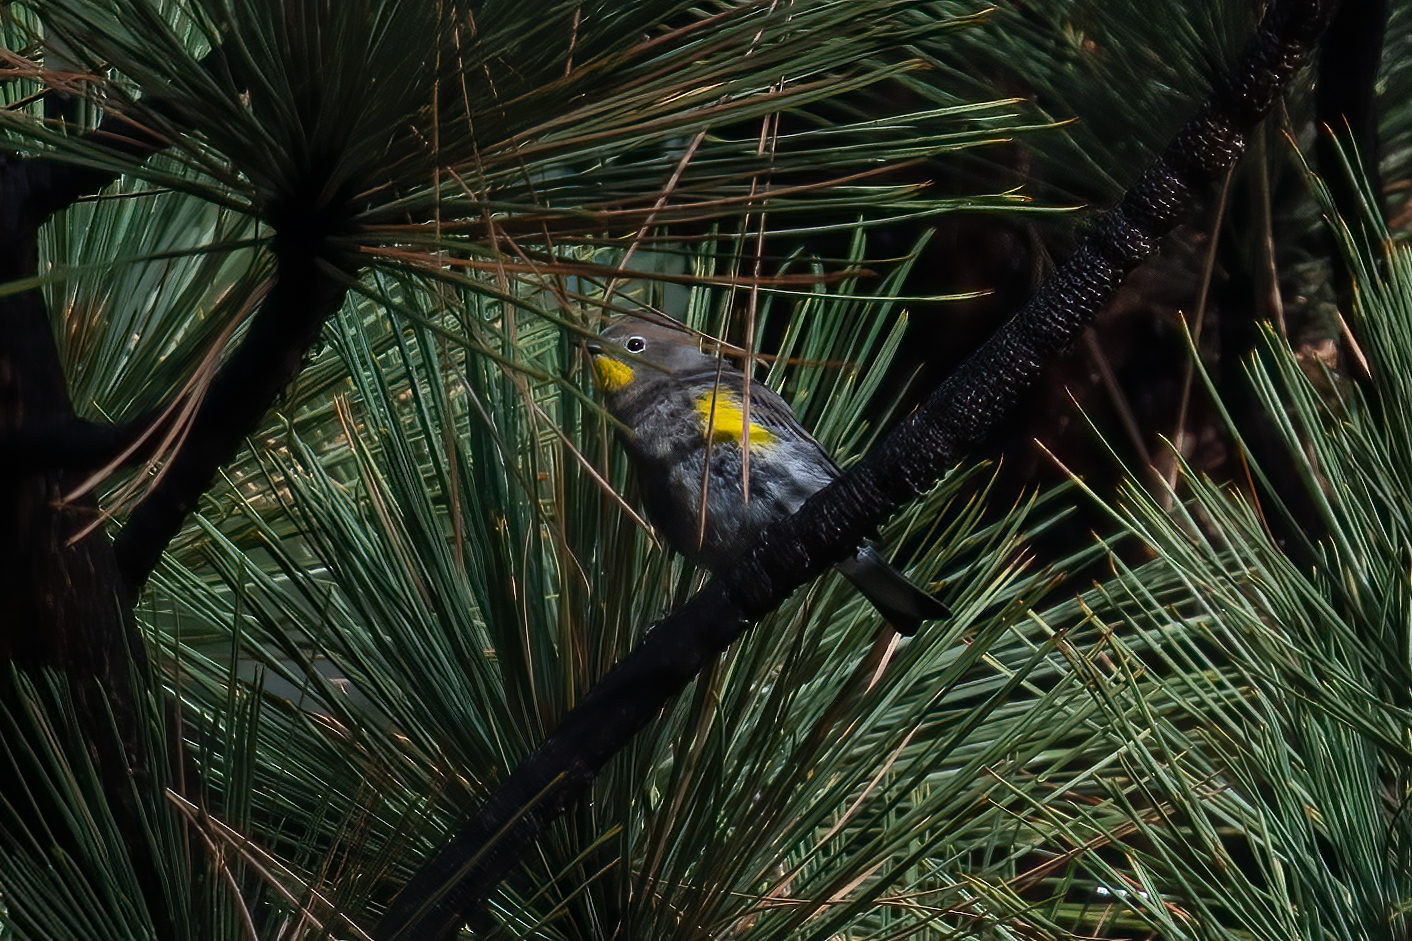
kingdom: Animalia
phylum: Chordata
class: Aves
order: Passeriformes
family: Parulidae
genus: Setophaga
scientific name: Setophaga coronata
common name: Myrtle warbler
